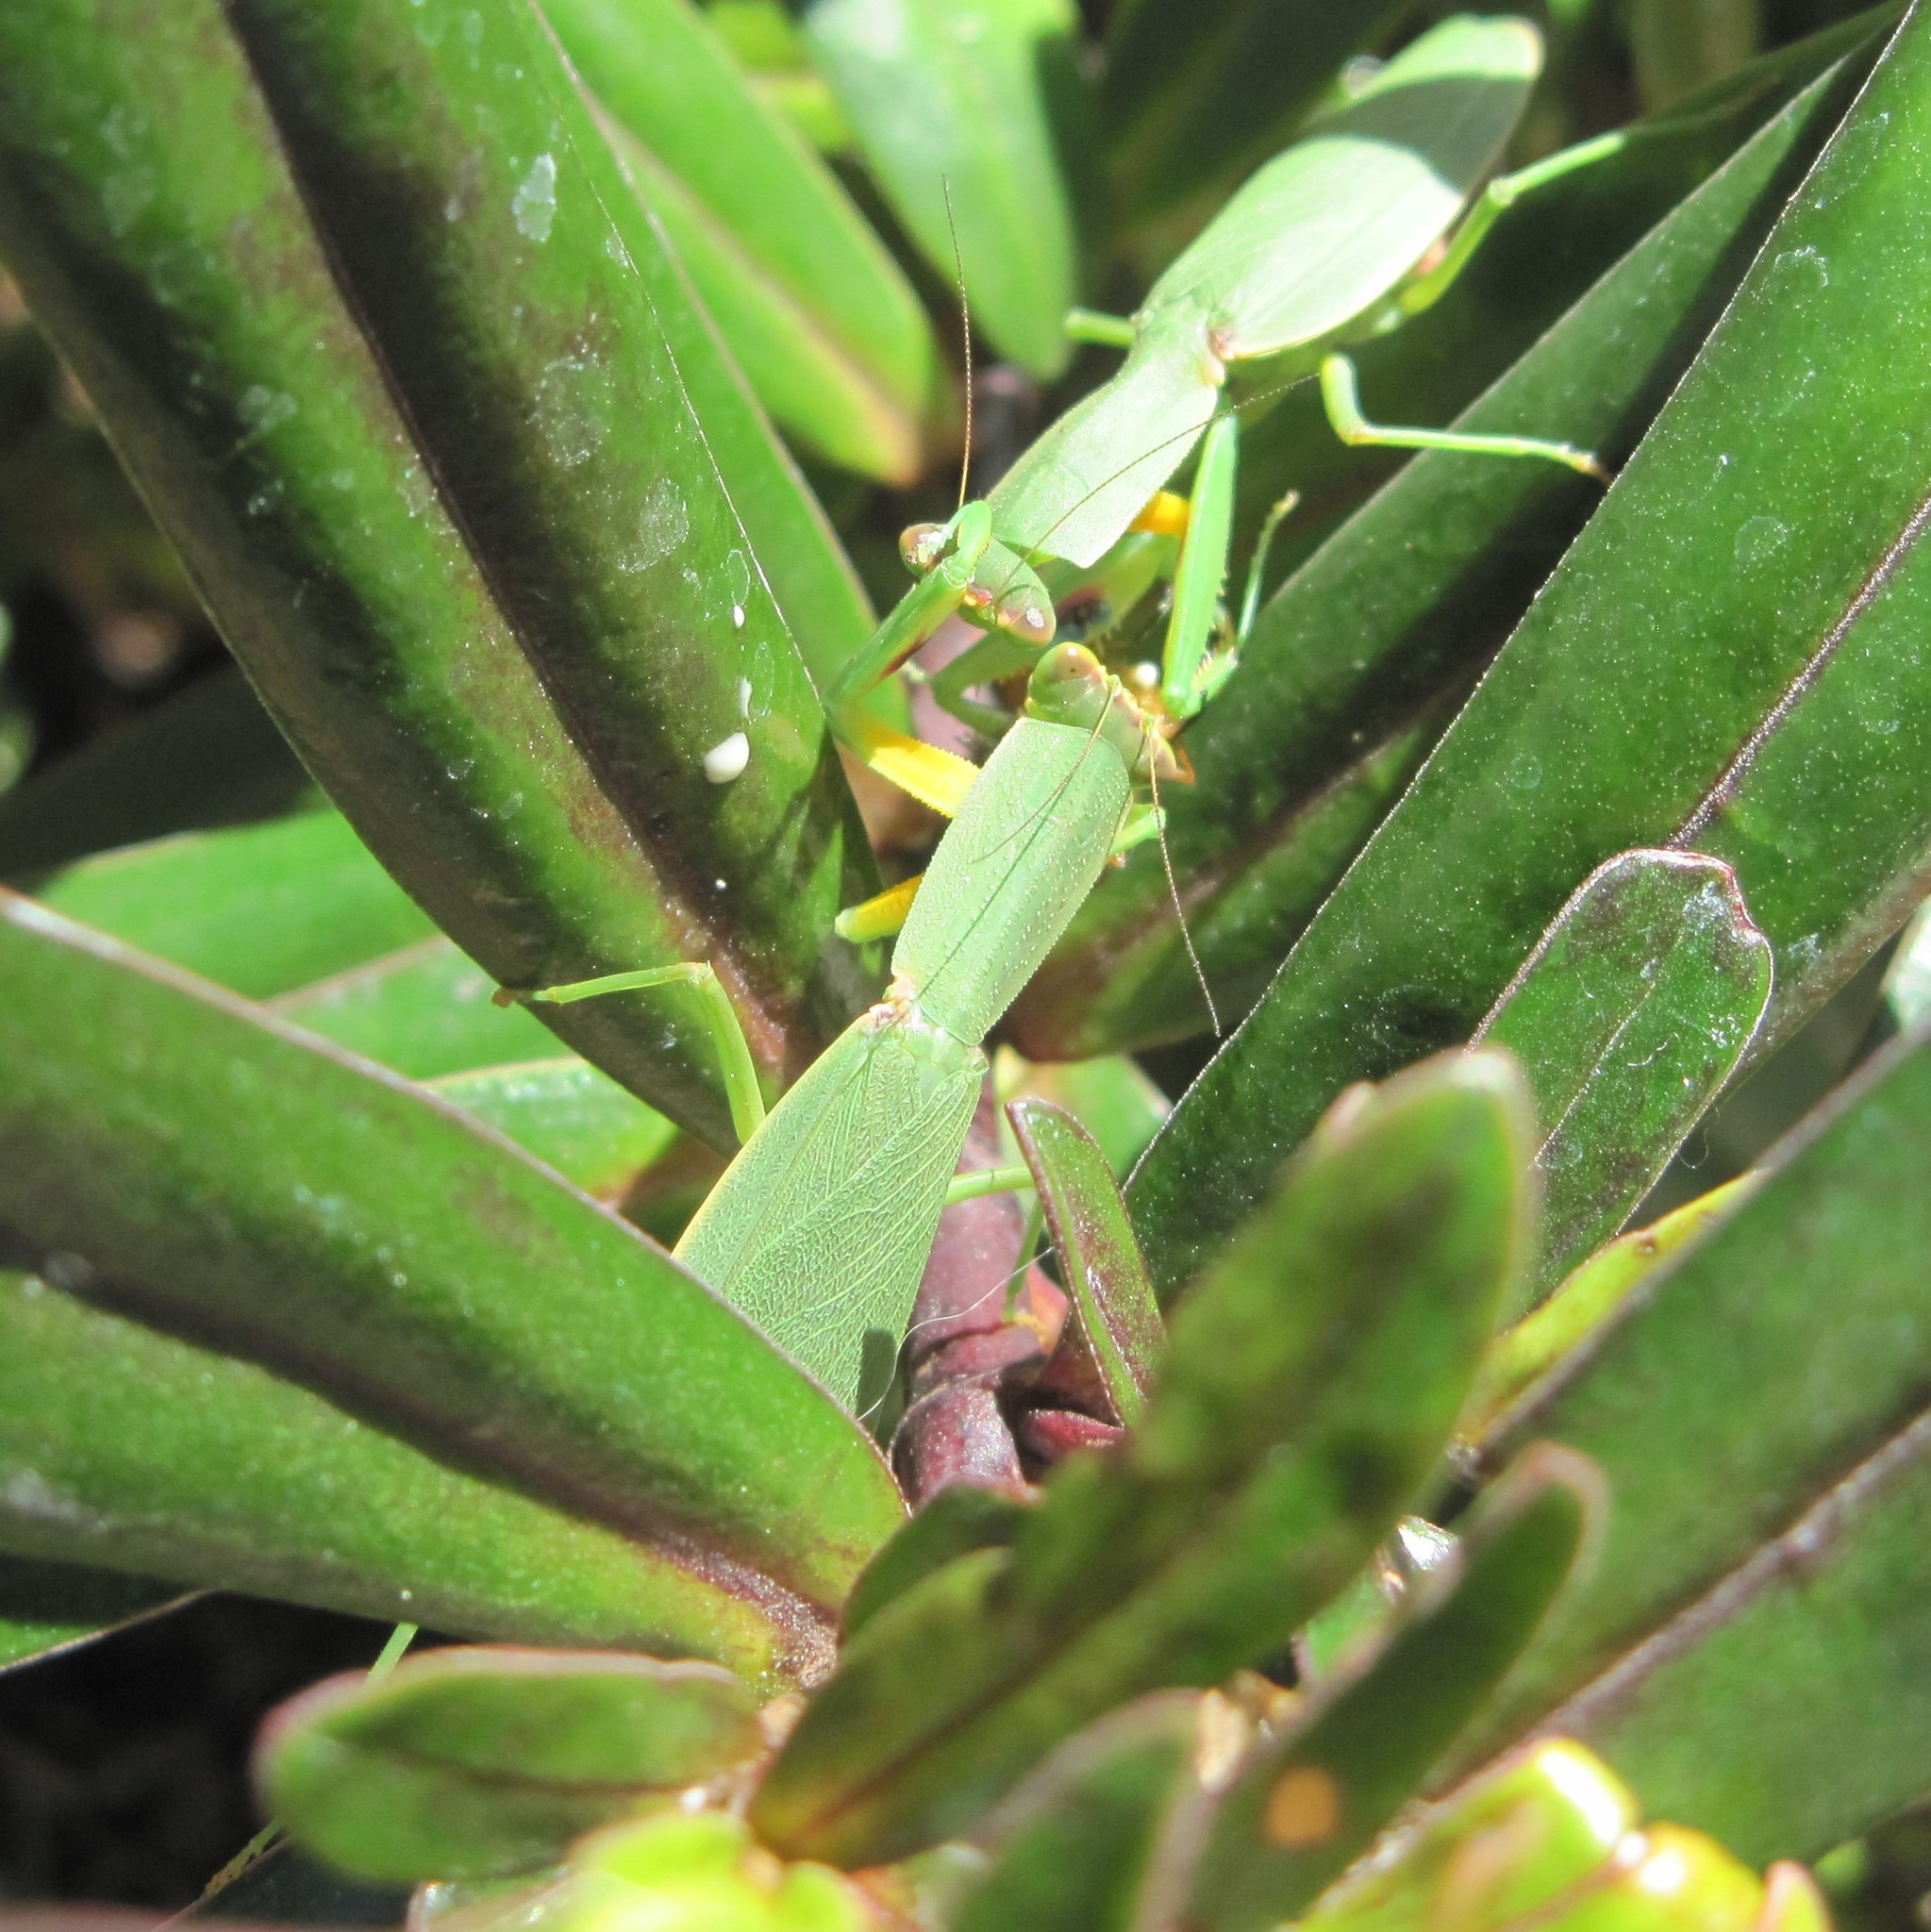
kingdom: Animalia
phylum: Arthropoda
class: Insecta
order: Mantodea
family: Mantidae
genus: Orthodera
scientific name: Orthodera novaezealandiae
